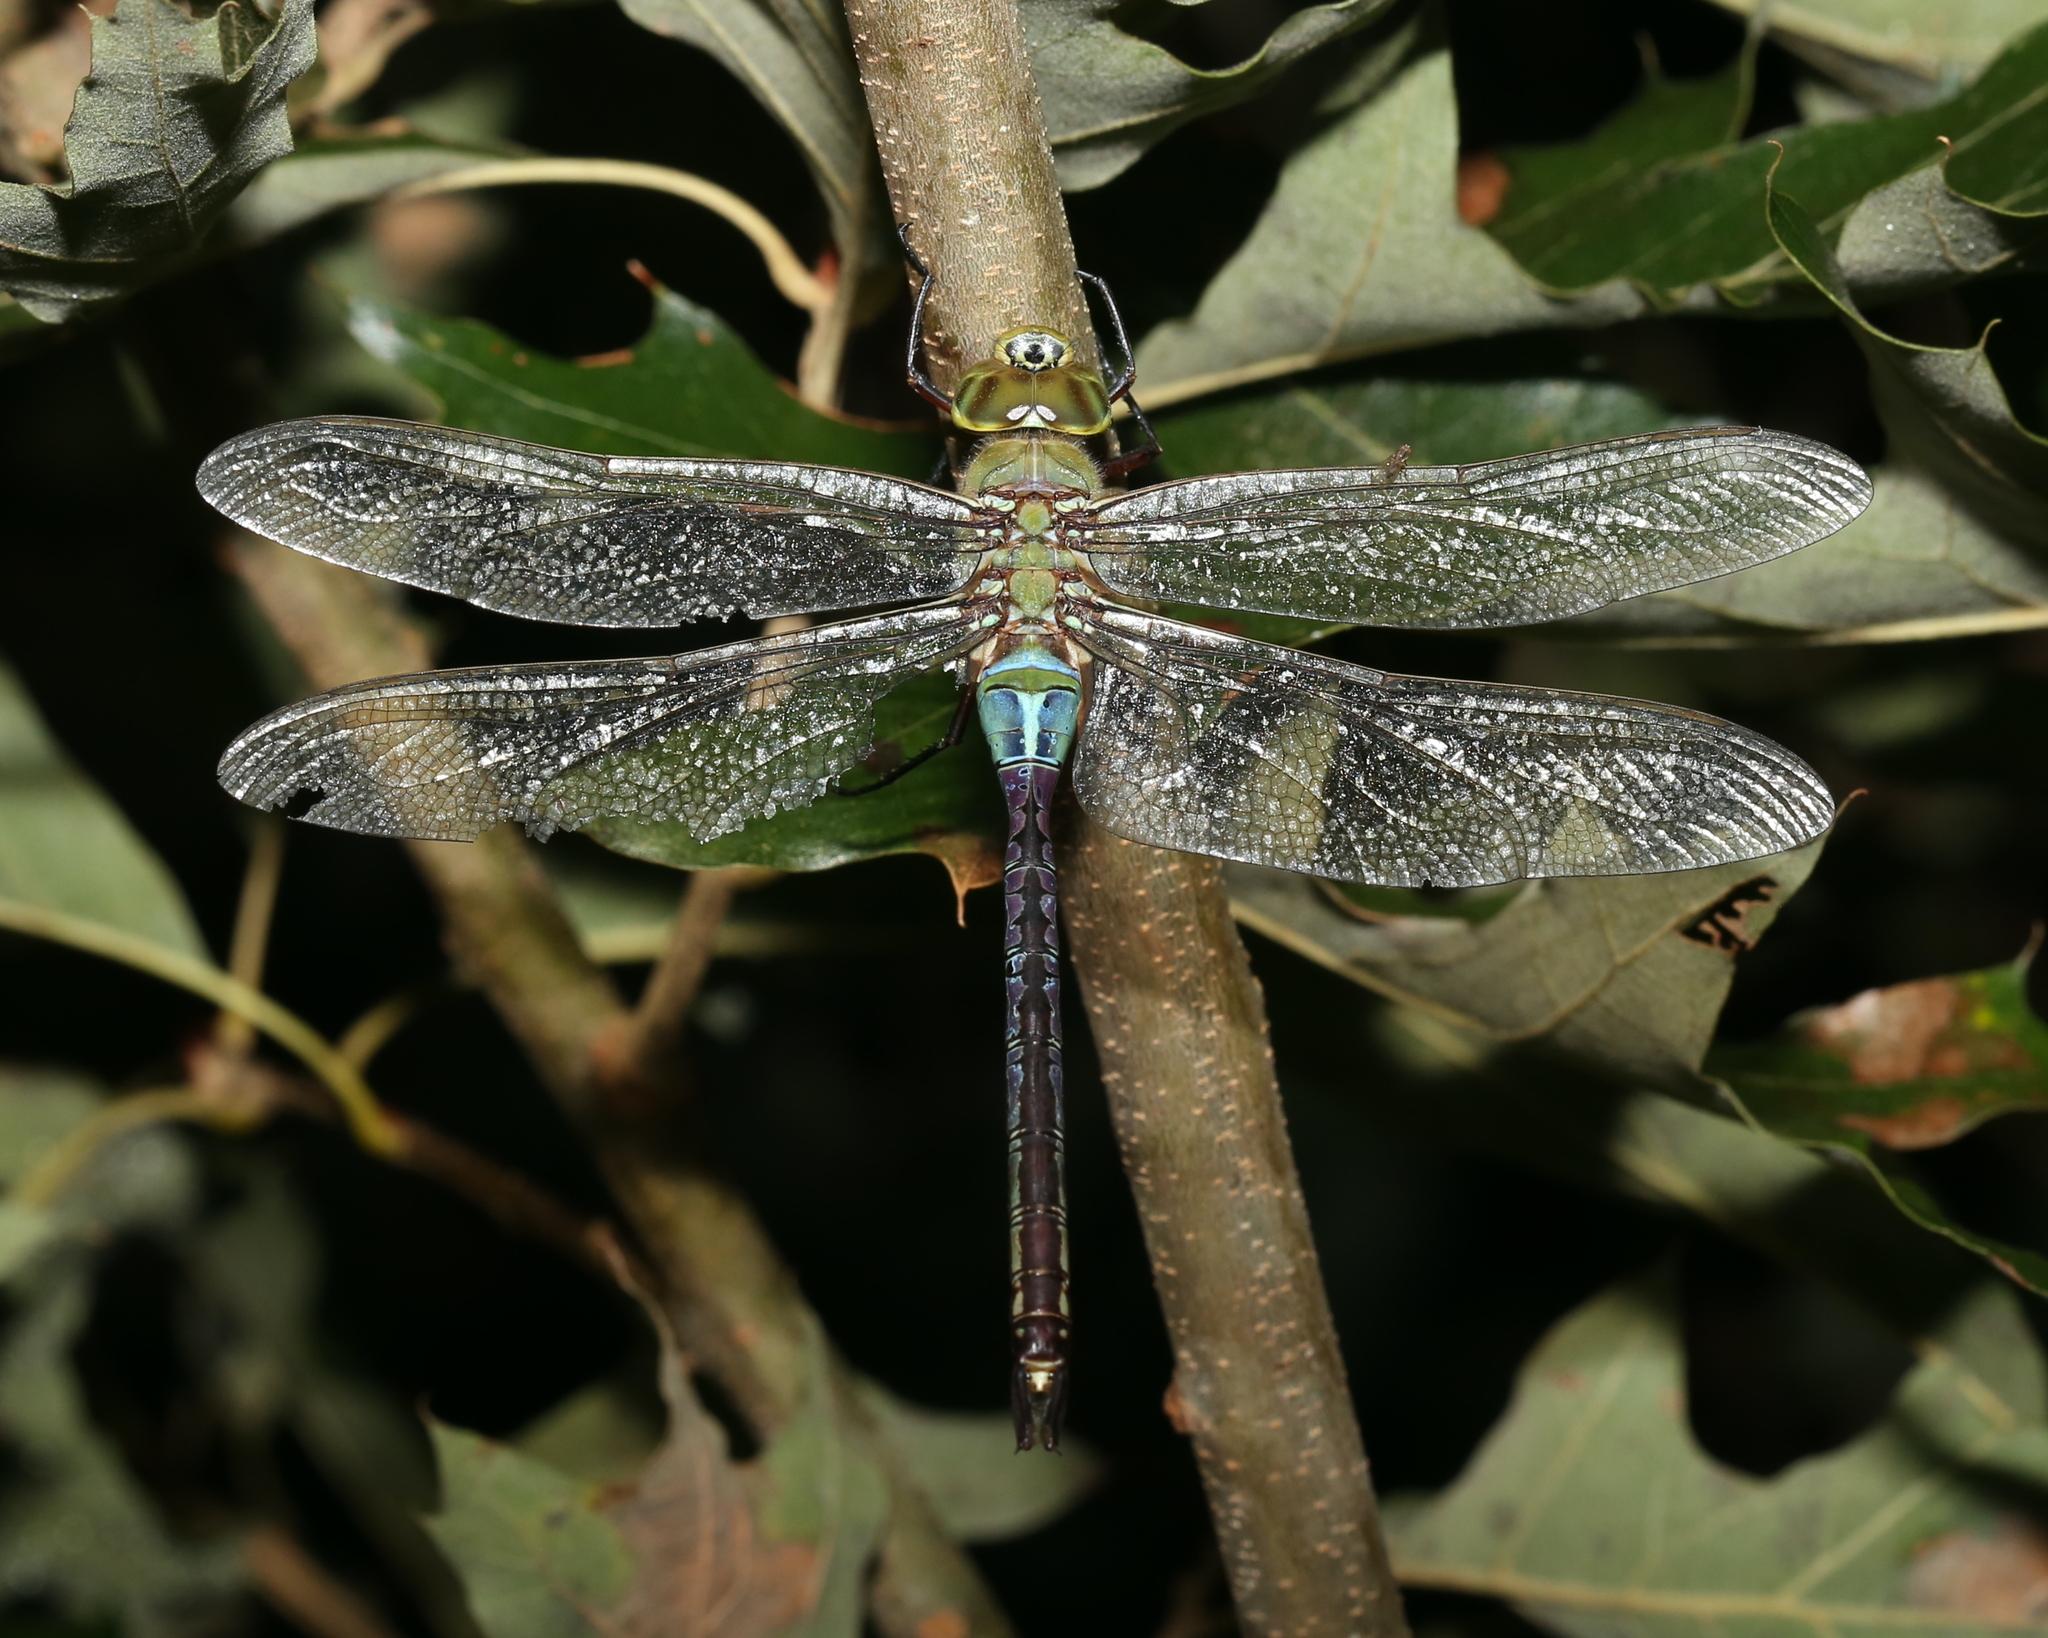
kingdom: Animalia
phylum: Arthropoda
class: Insecta
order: Odonata
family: Aeshnidae
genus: Anax
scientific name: Anax junius
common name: Common green darner
